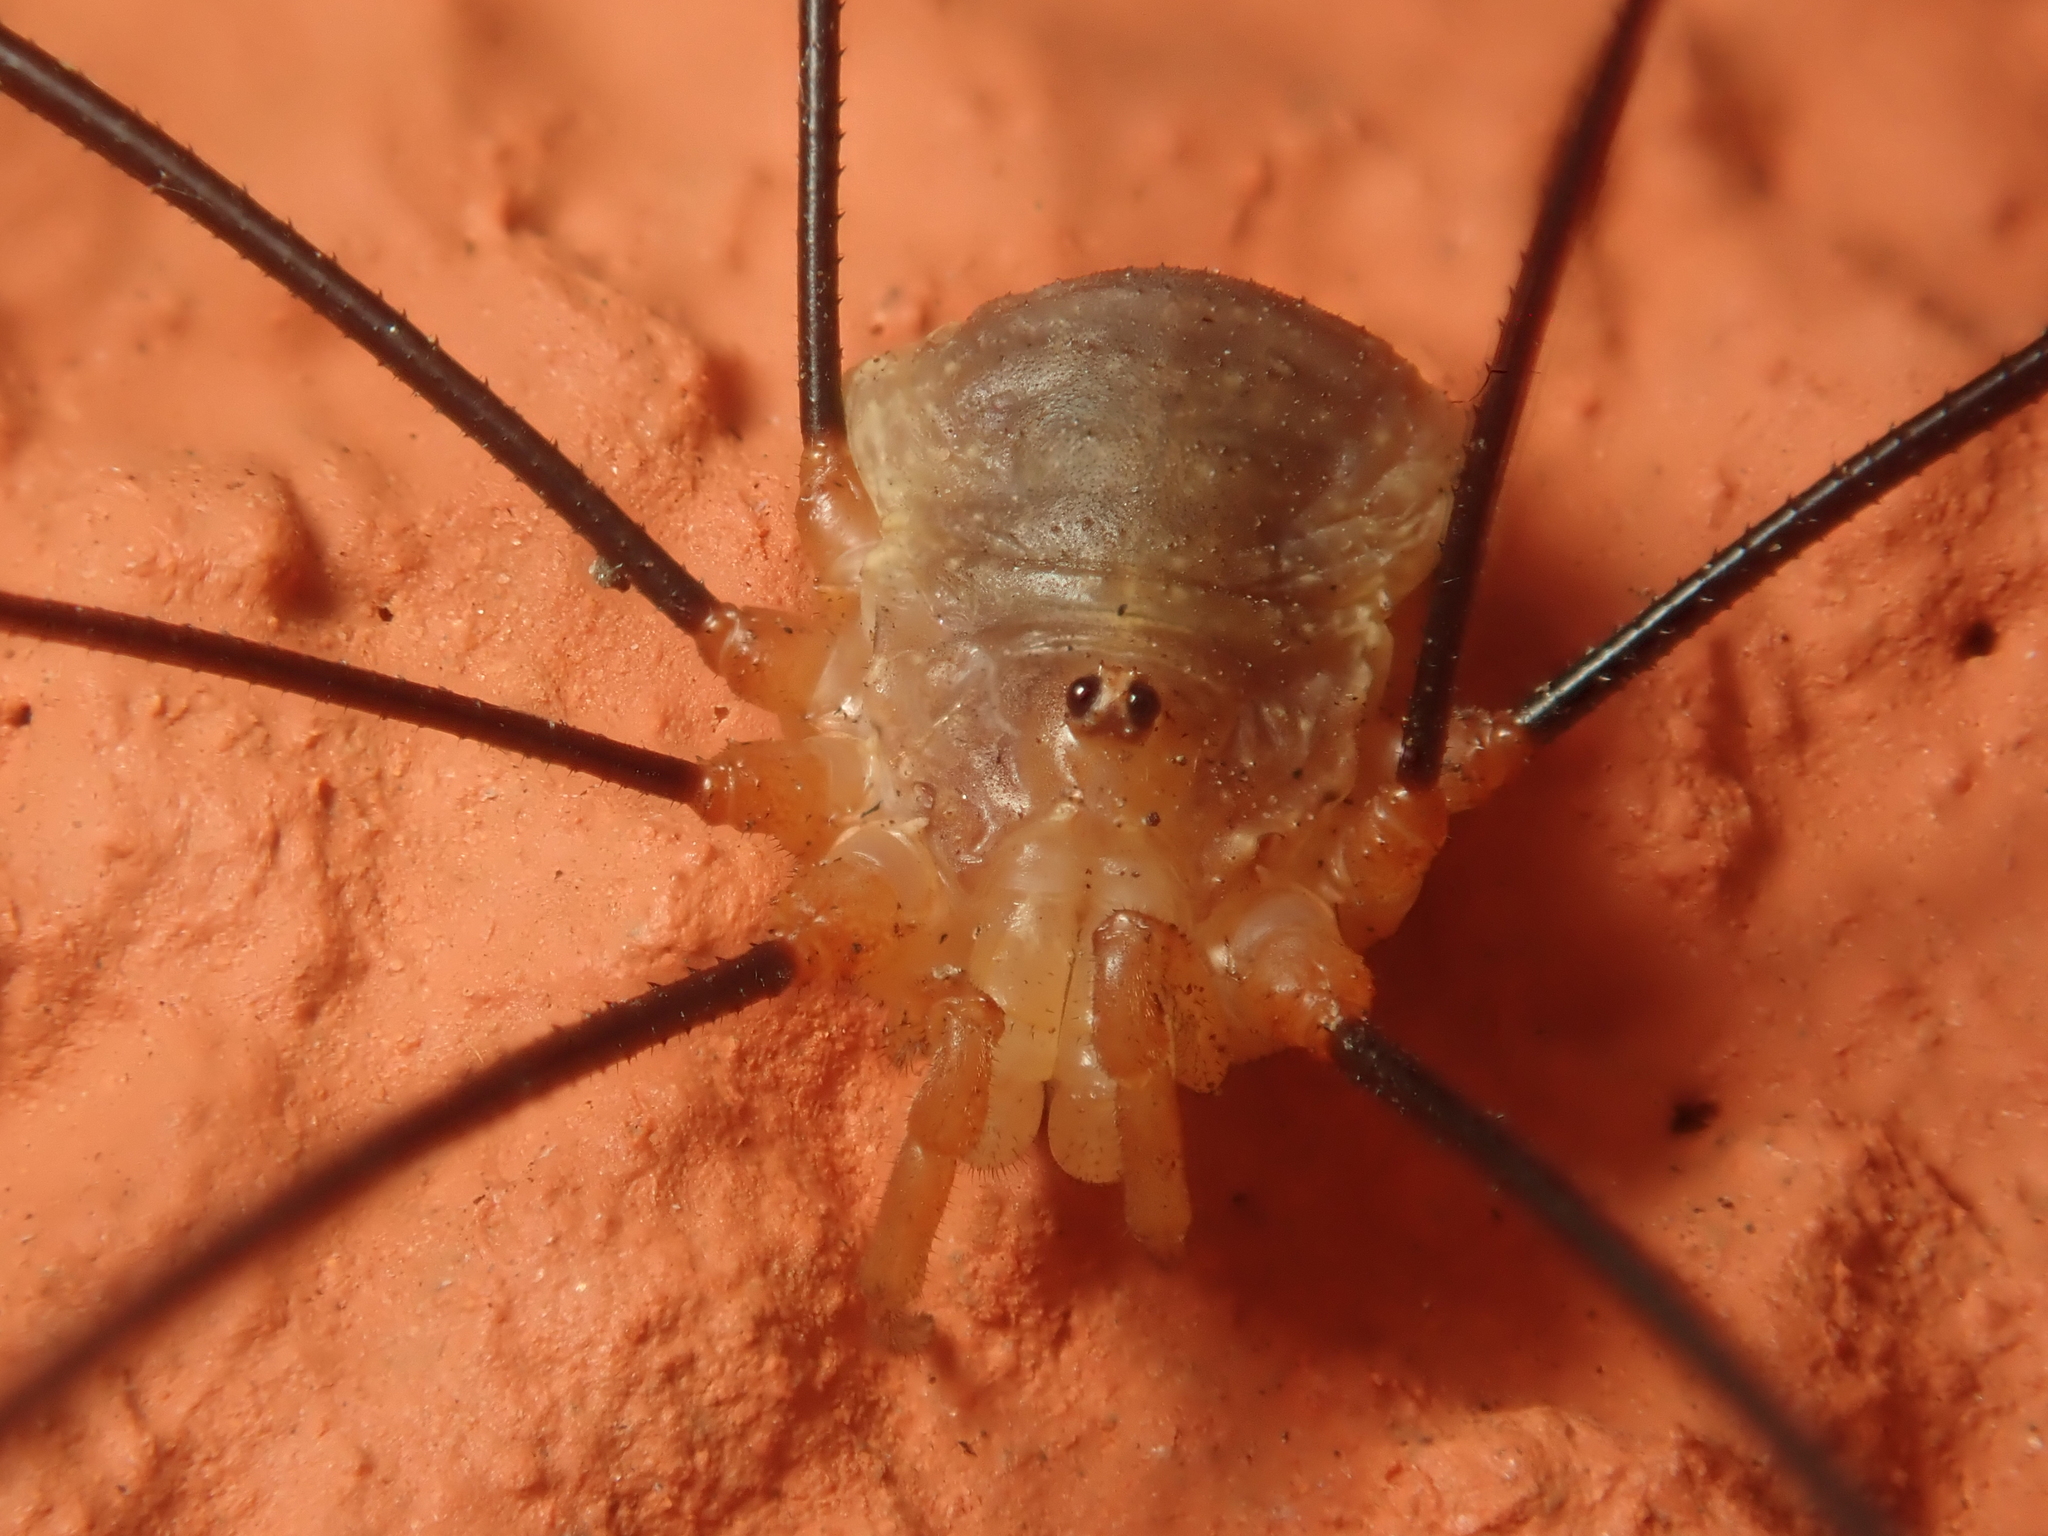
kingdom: Animalia
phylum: Arthropoda
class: Arachnida
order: Opiliones
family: Phalangiidae
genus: Opilio
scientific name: Opilio canestrinii
